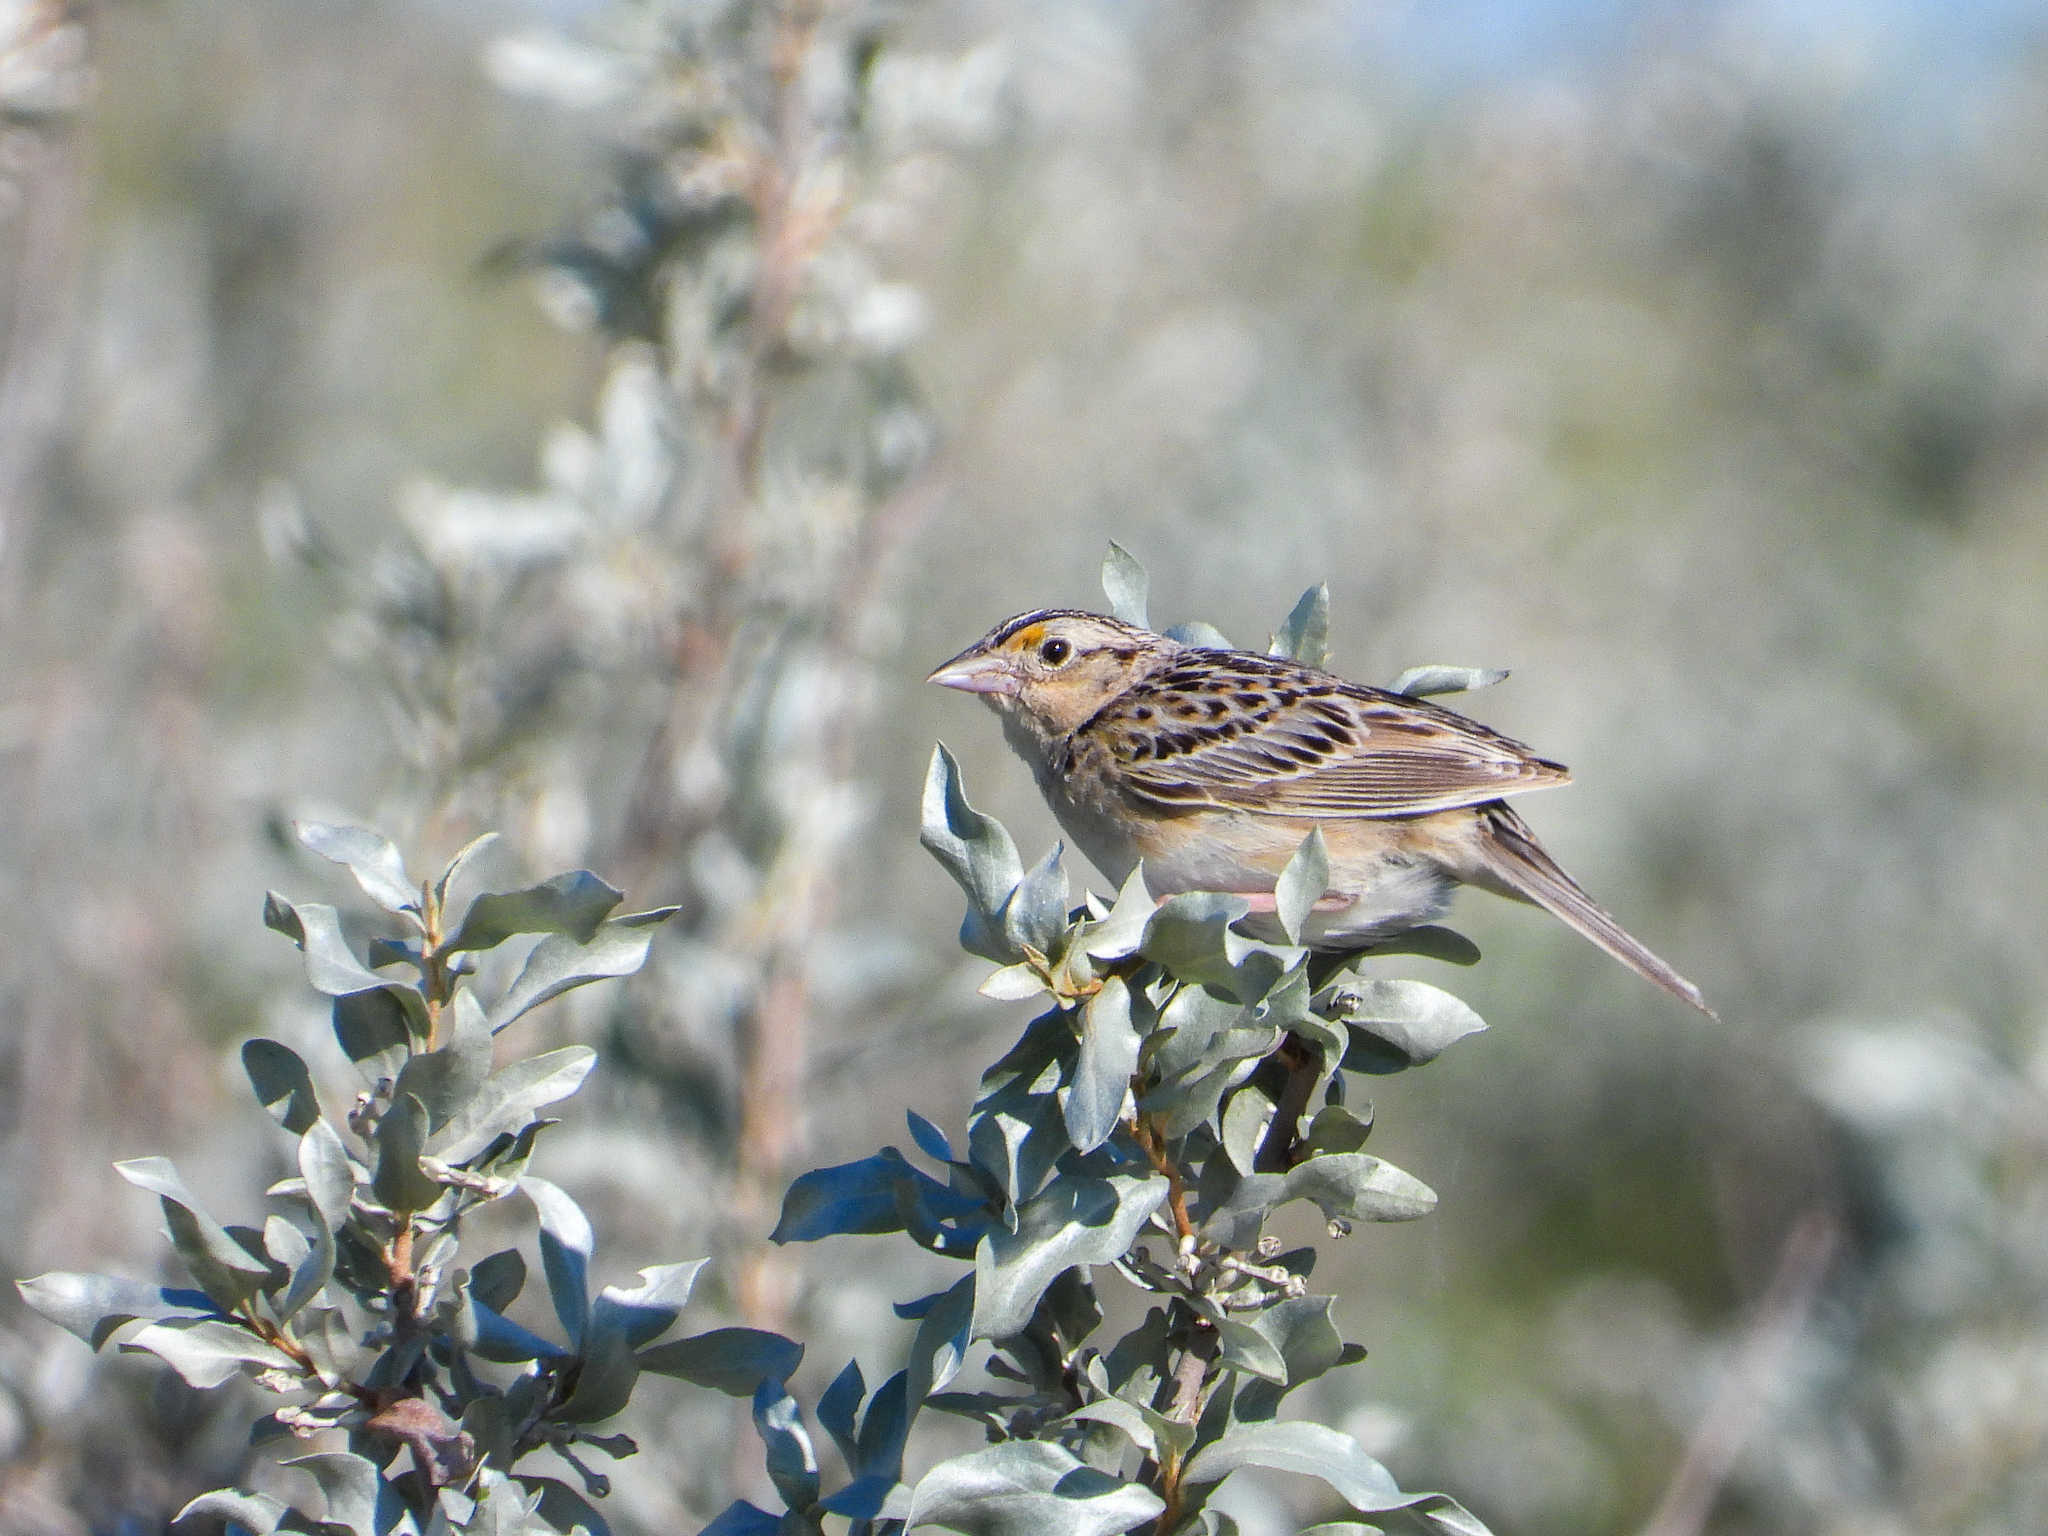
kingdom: Animalia
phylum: Chordata
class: Aves
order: Passeriformes
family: Passerellidae
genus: Ammodramus
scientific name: Ammodramus savannarum
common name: Grasshopper sparrow
